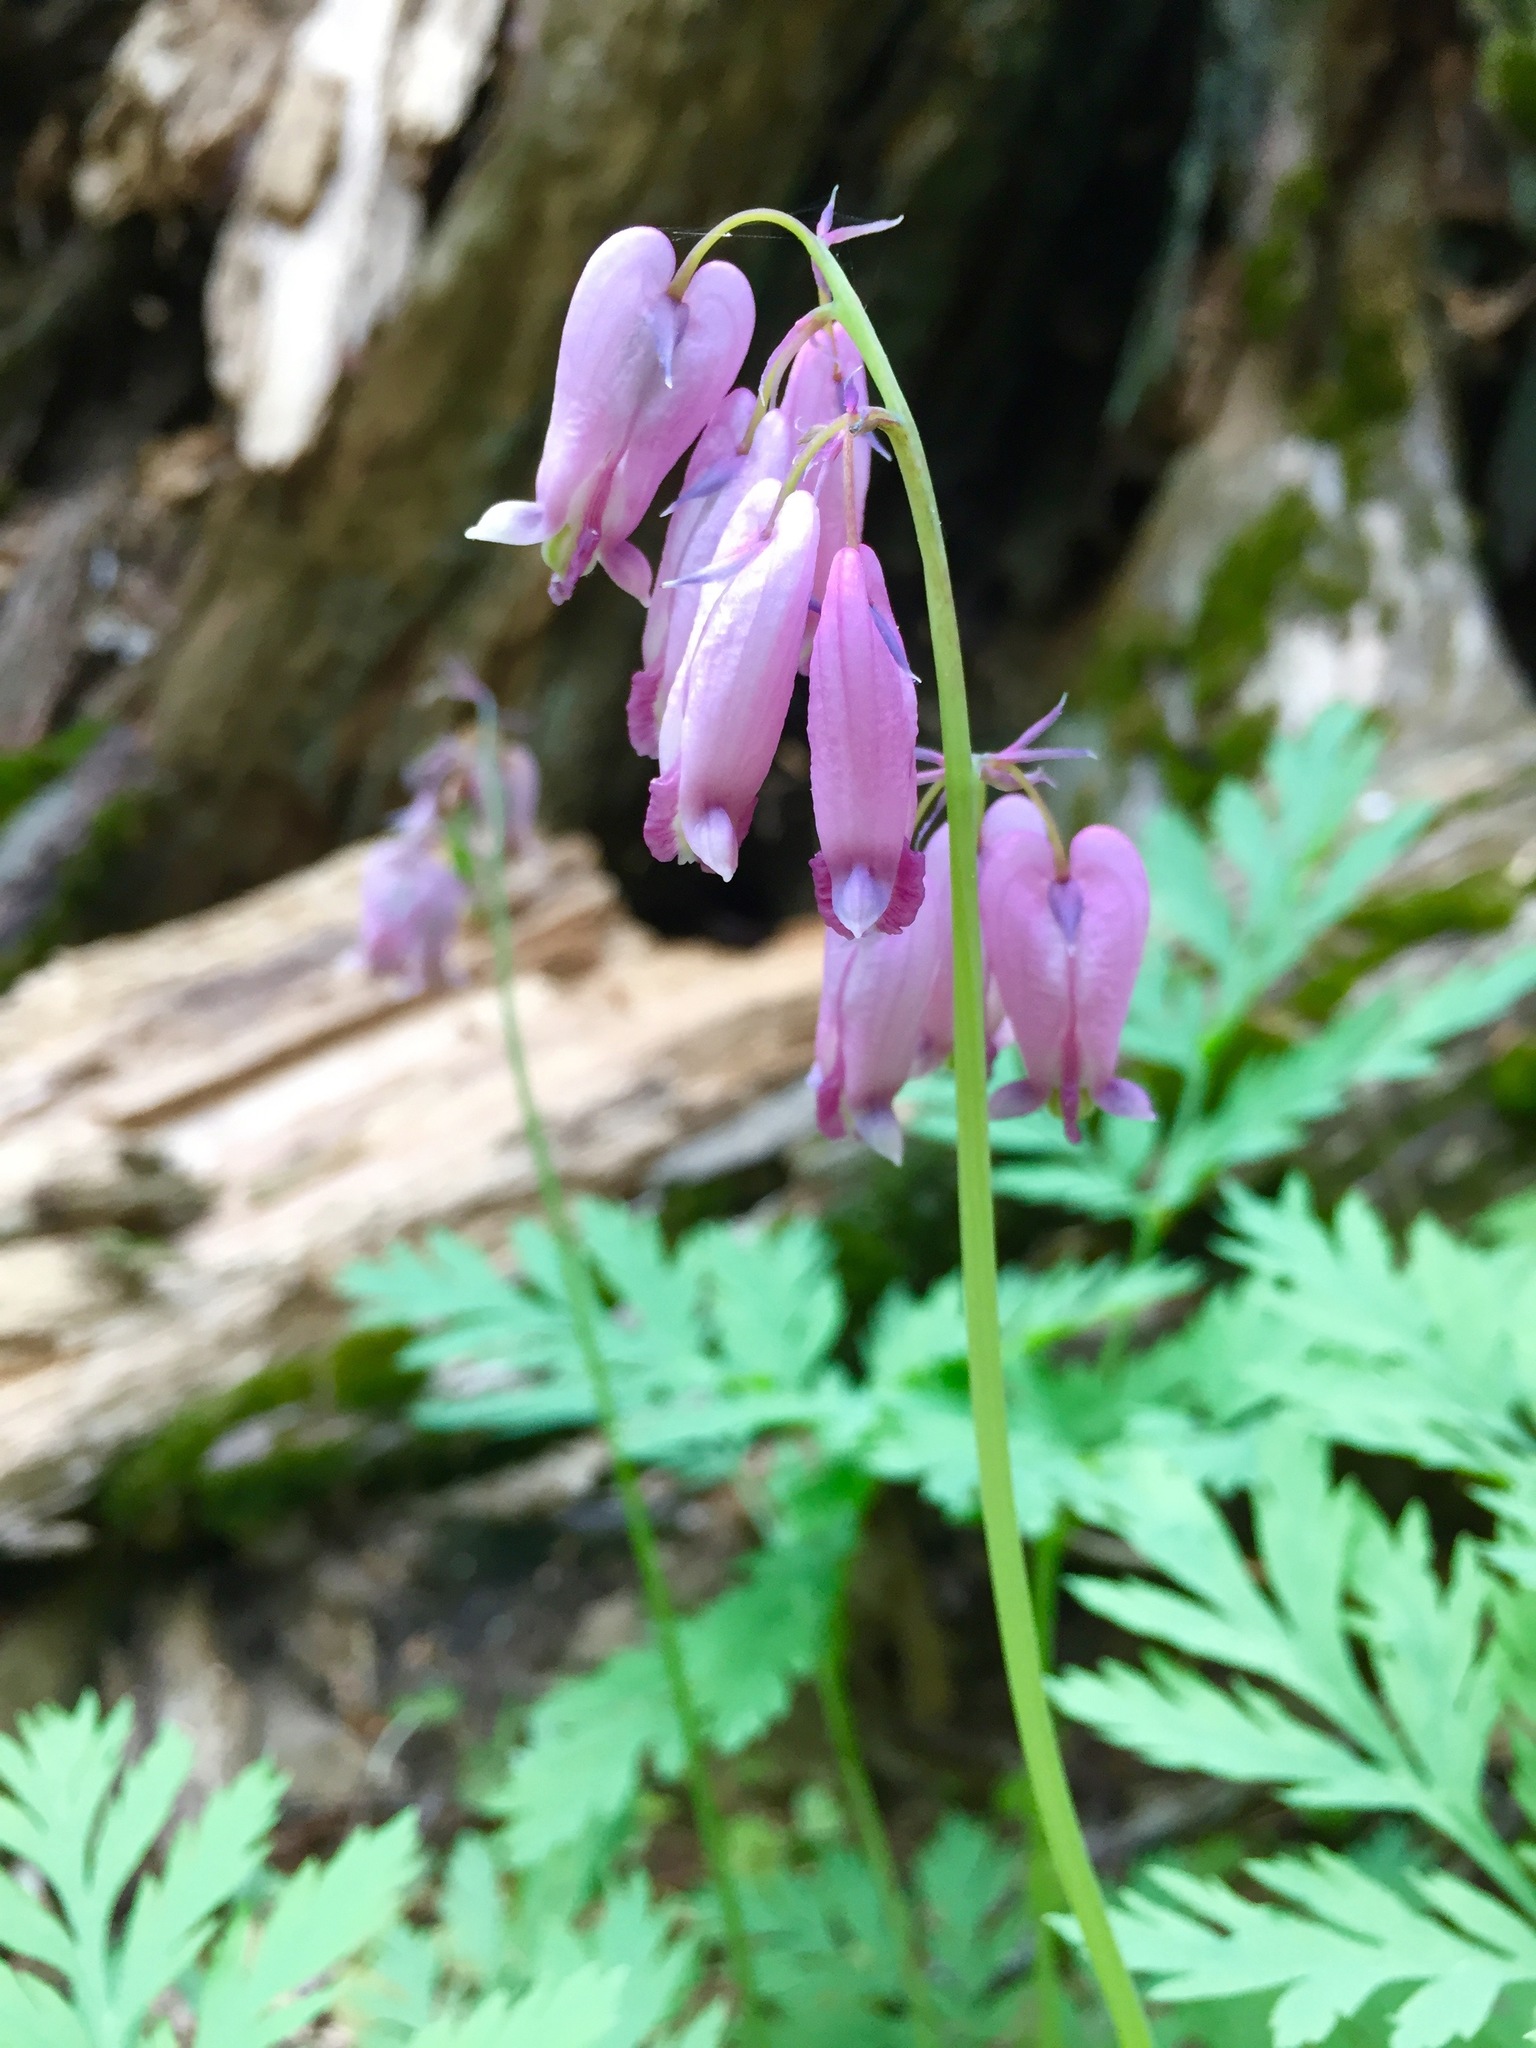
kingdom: Plantae
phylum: Tracheophyta
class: Magnoliopsida
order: Ranunculales
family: Papaveraceae
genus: Dicentra
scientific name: Dicentra formosa
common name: Bleeding-heart
